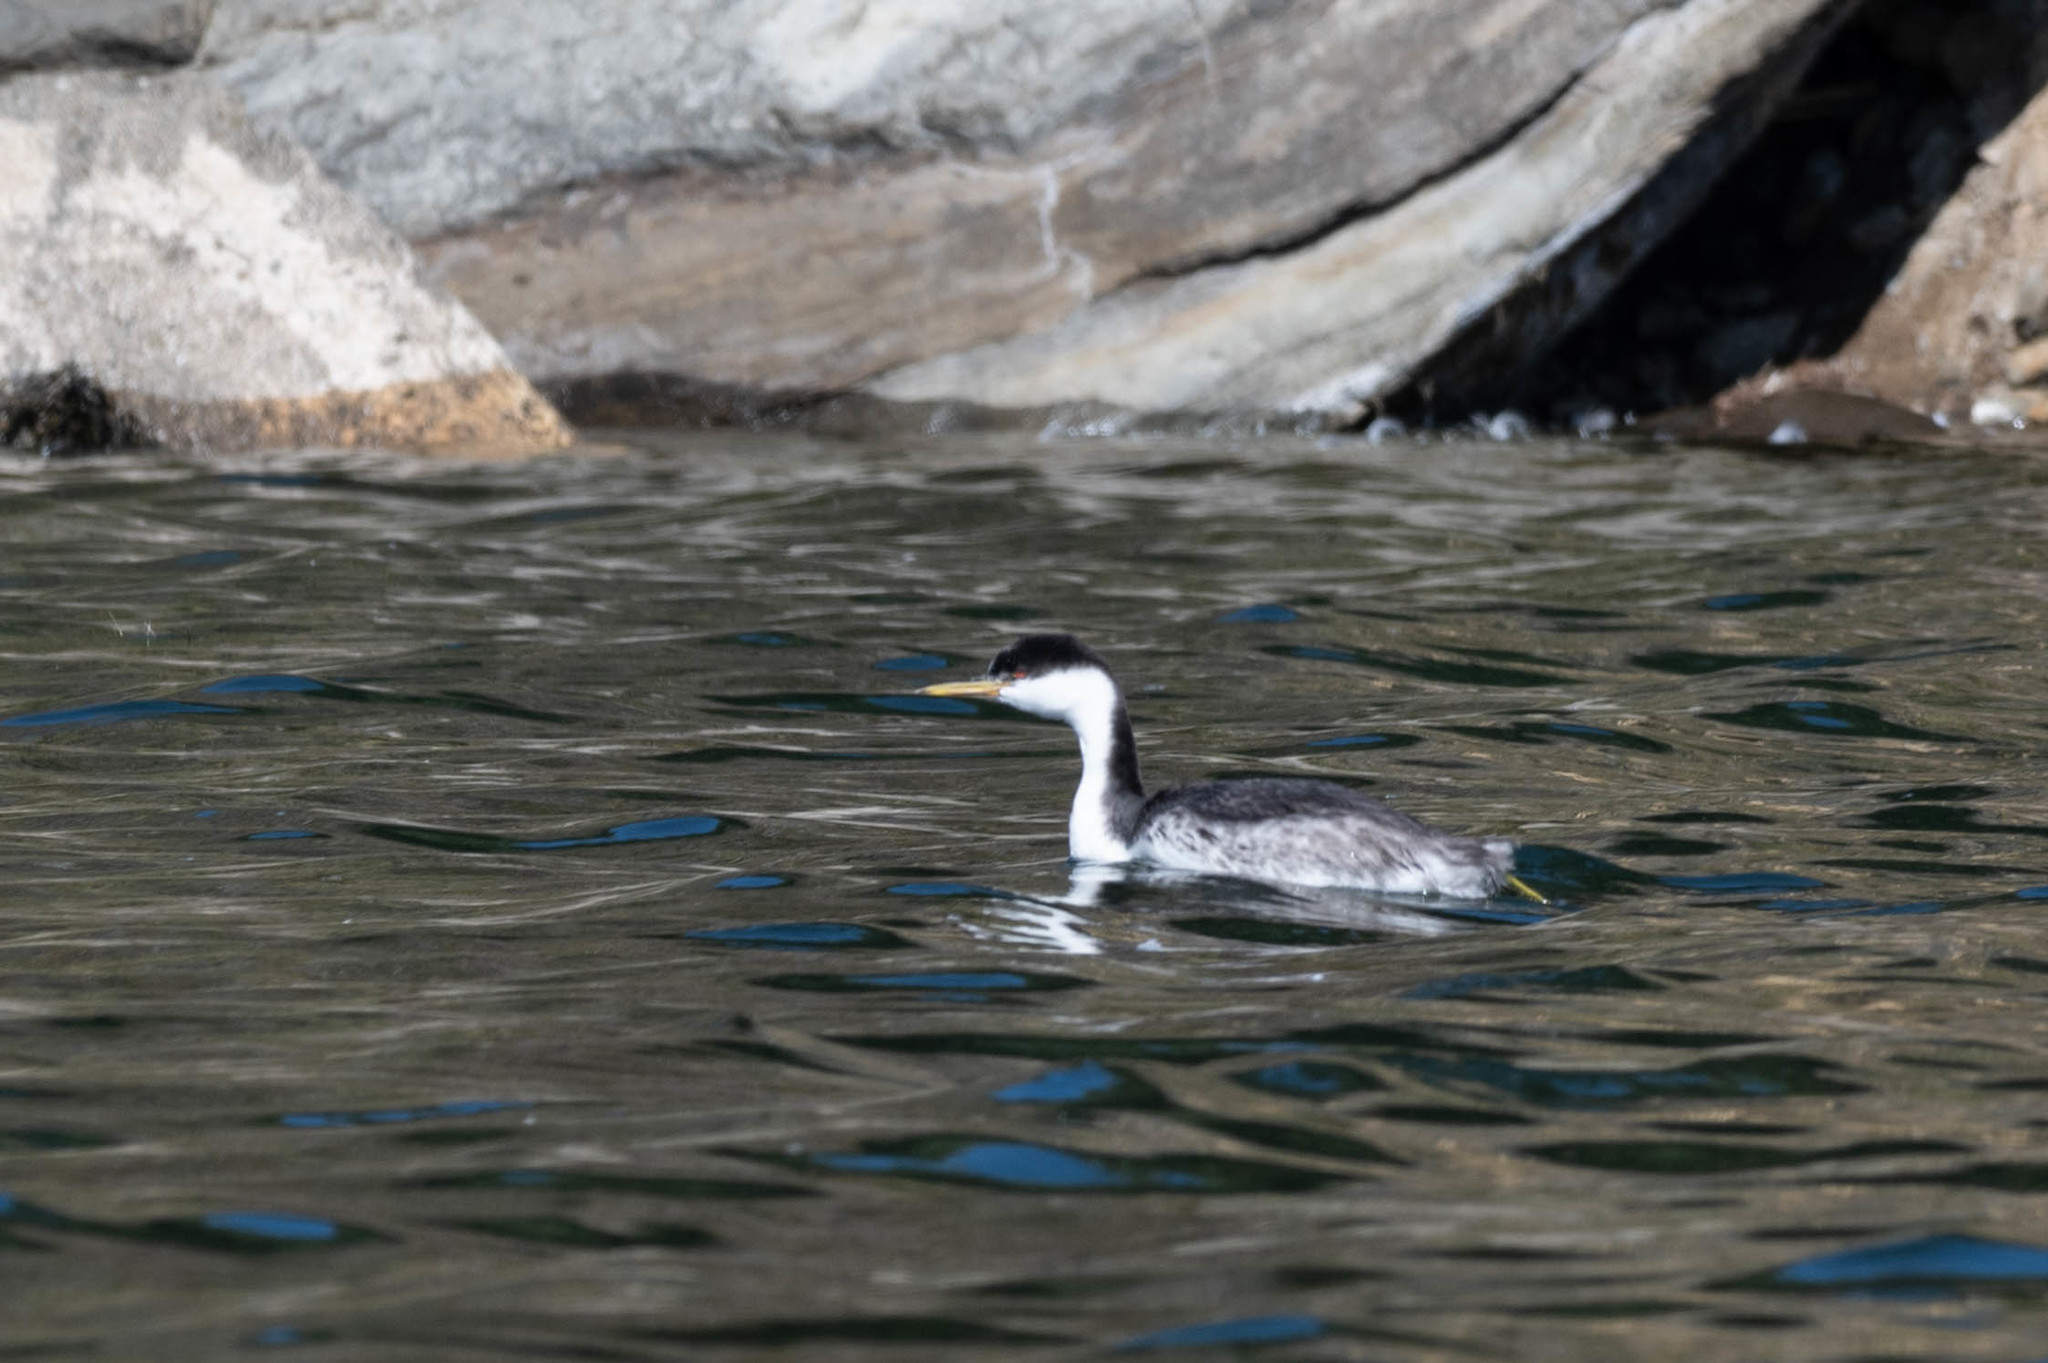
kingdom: Animalia
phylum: Chordata
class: Aves
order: Podicipediformes
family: Podicipedidae
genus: Aechmophorus
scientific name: Aechmophorus occidentalis
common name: Western grebe
